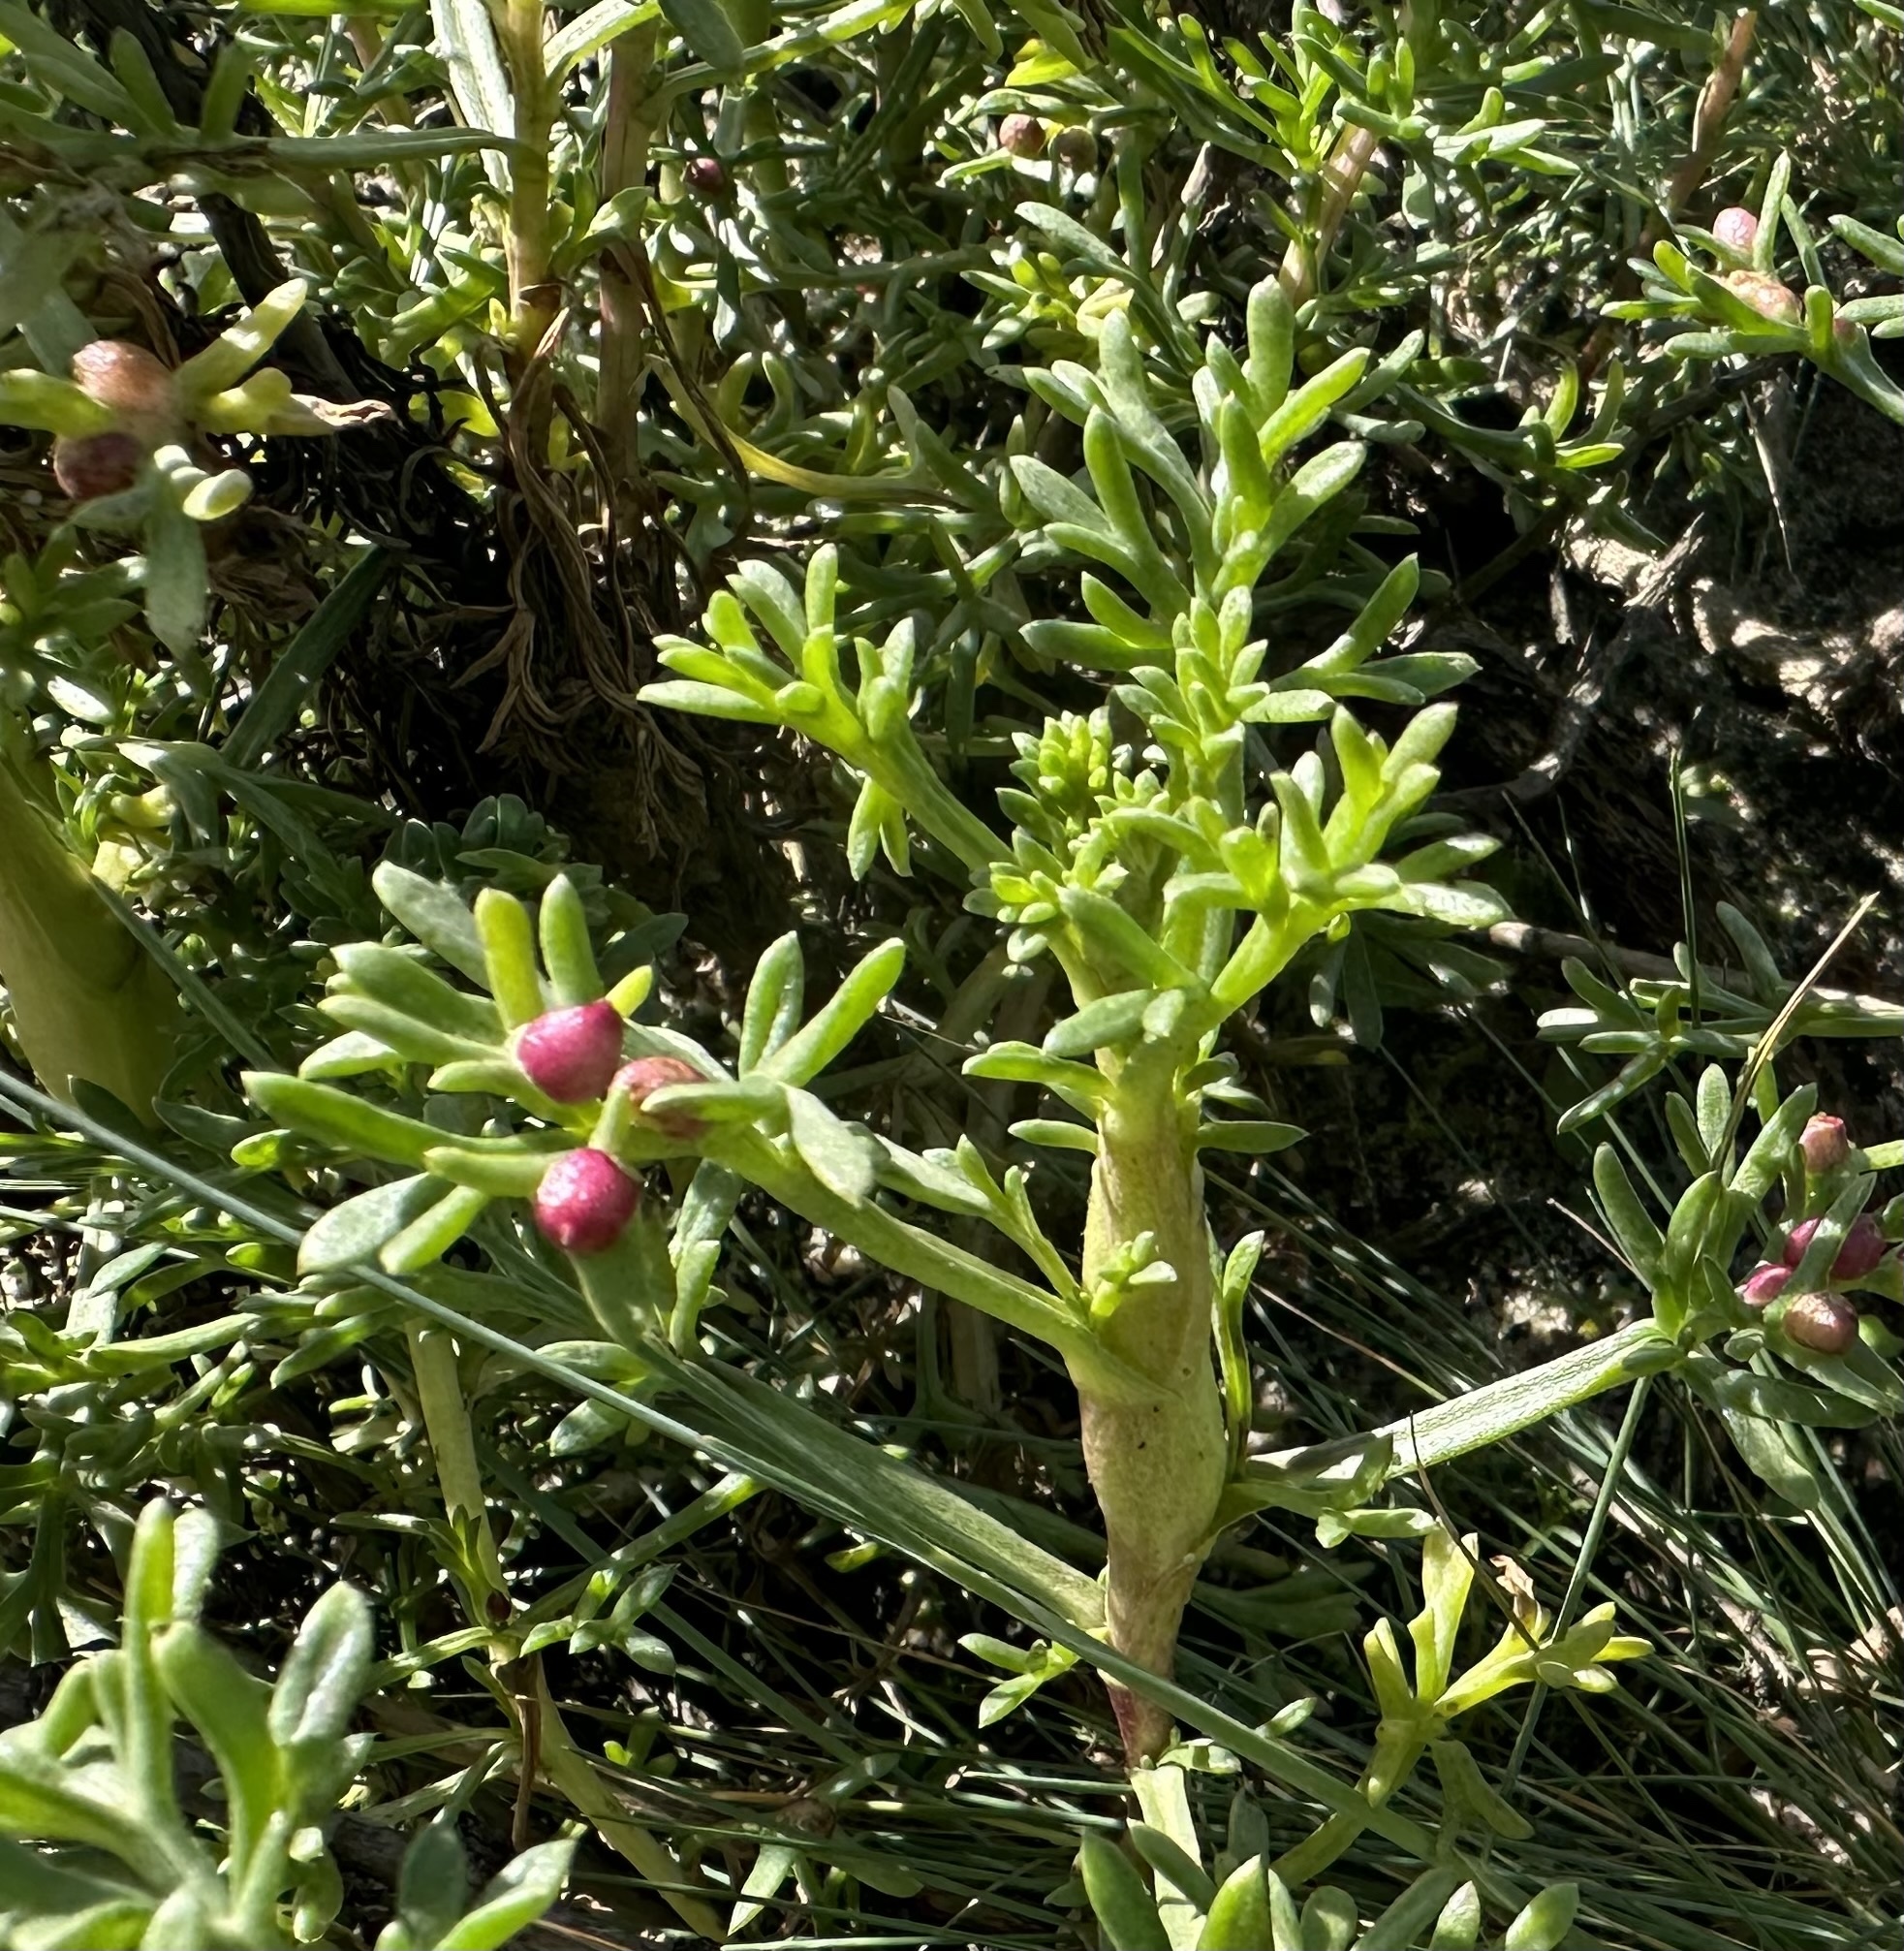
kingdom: Animalia
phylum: Arthropoda
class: Insecta
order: Diptera
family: Cecidomyiidae
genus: Rhopalomyia
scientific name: Rhopalomyia baccarum
